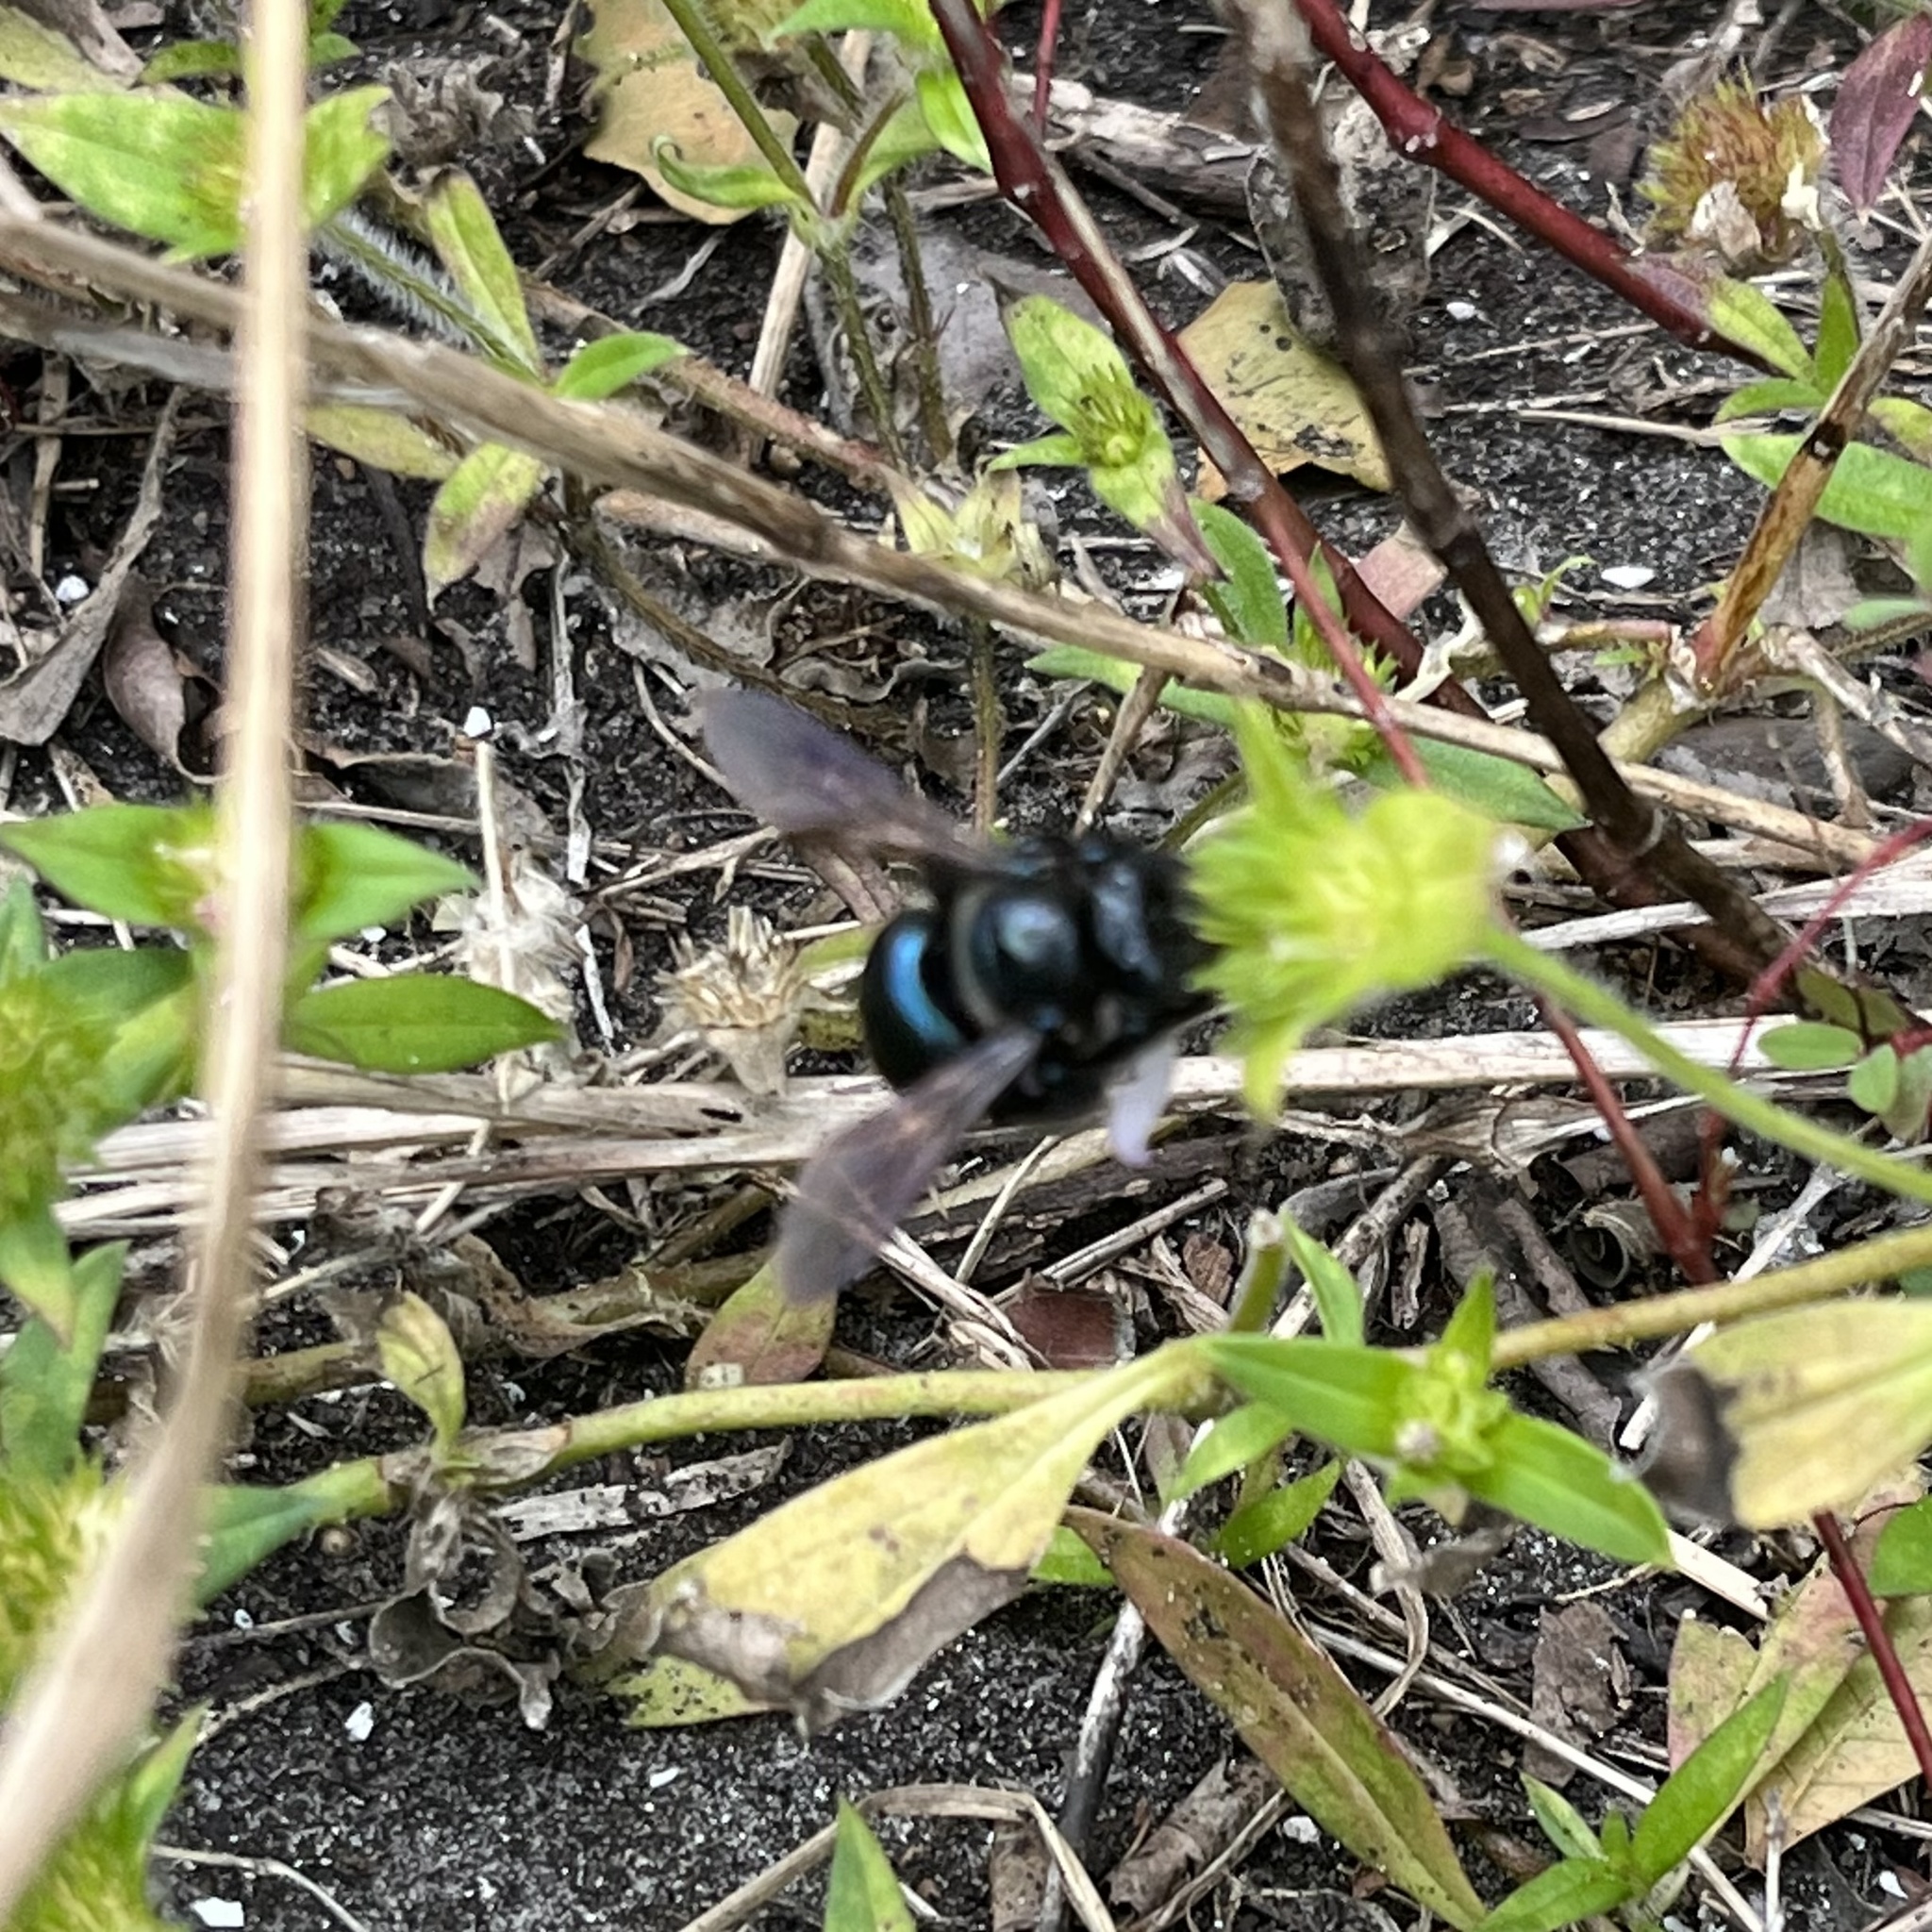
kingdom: Animalia
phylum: Arthropoda
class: Insecta
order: Hymenoptera
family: Apidae
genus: Xylocopa
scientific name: Xylocopa micans
